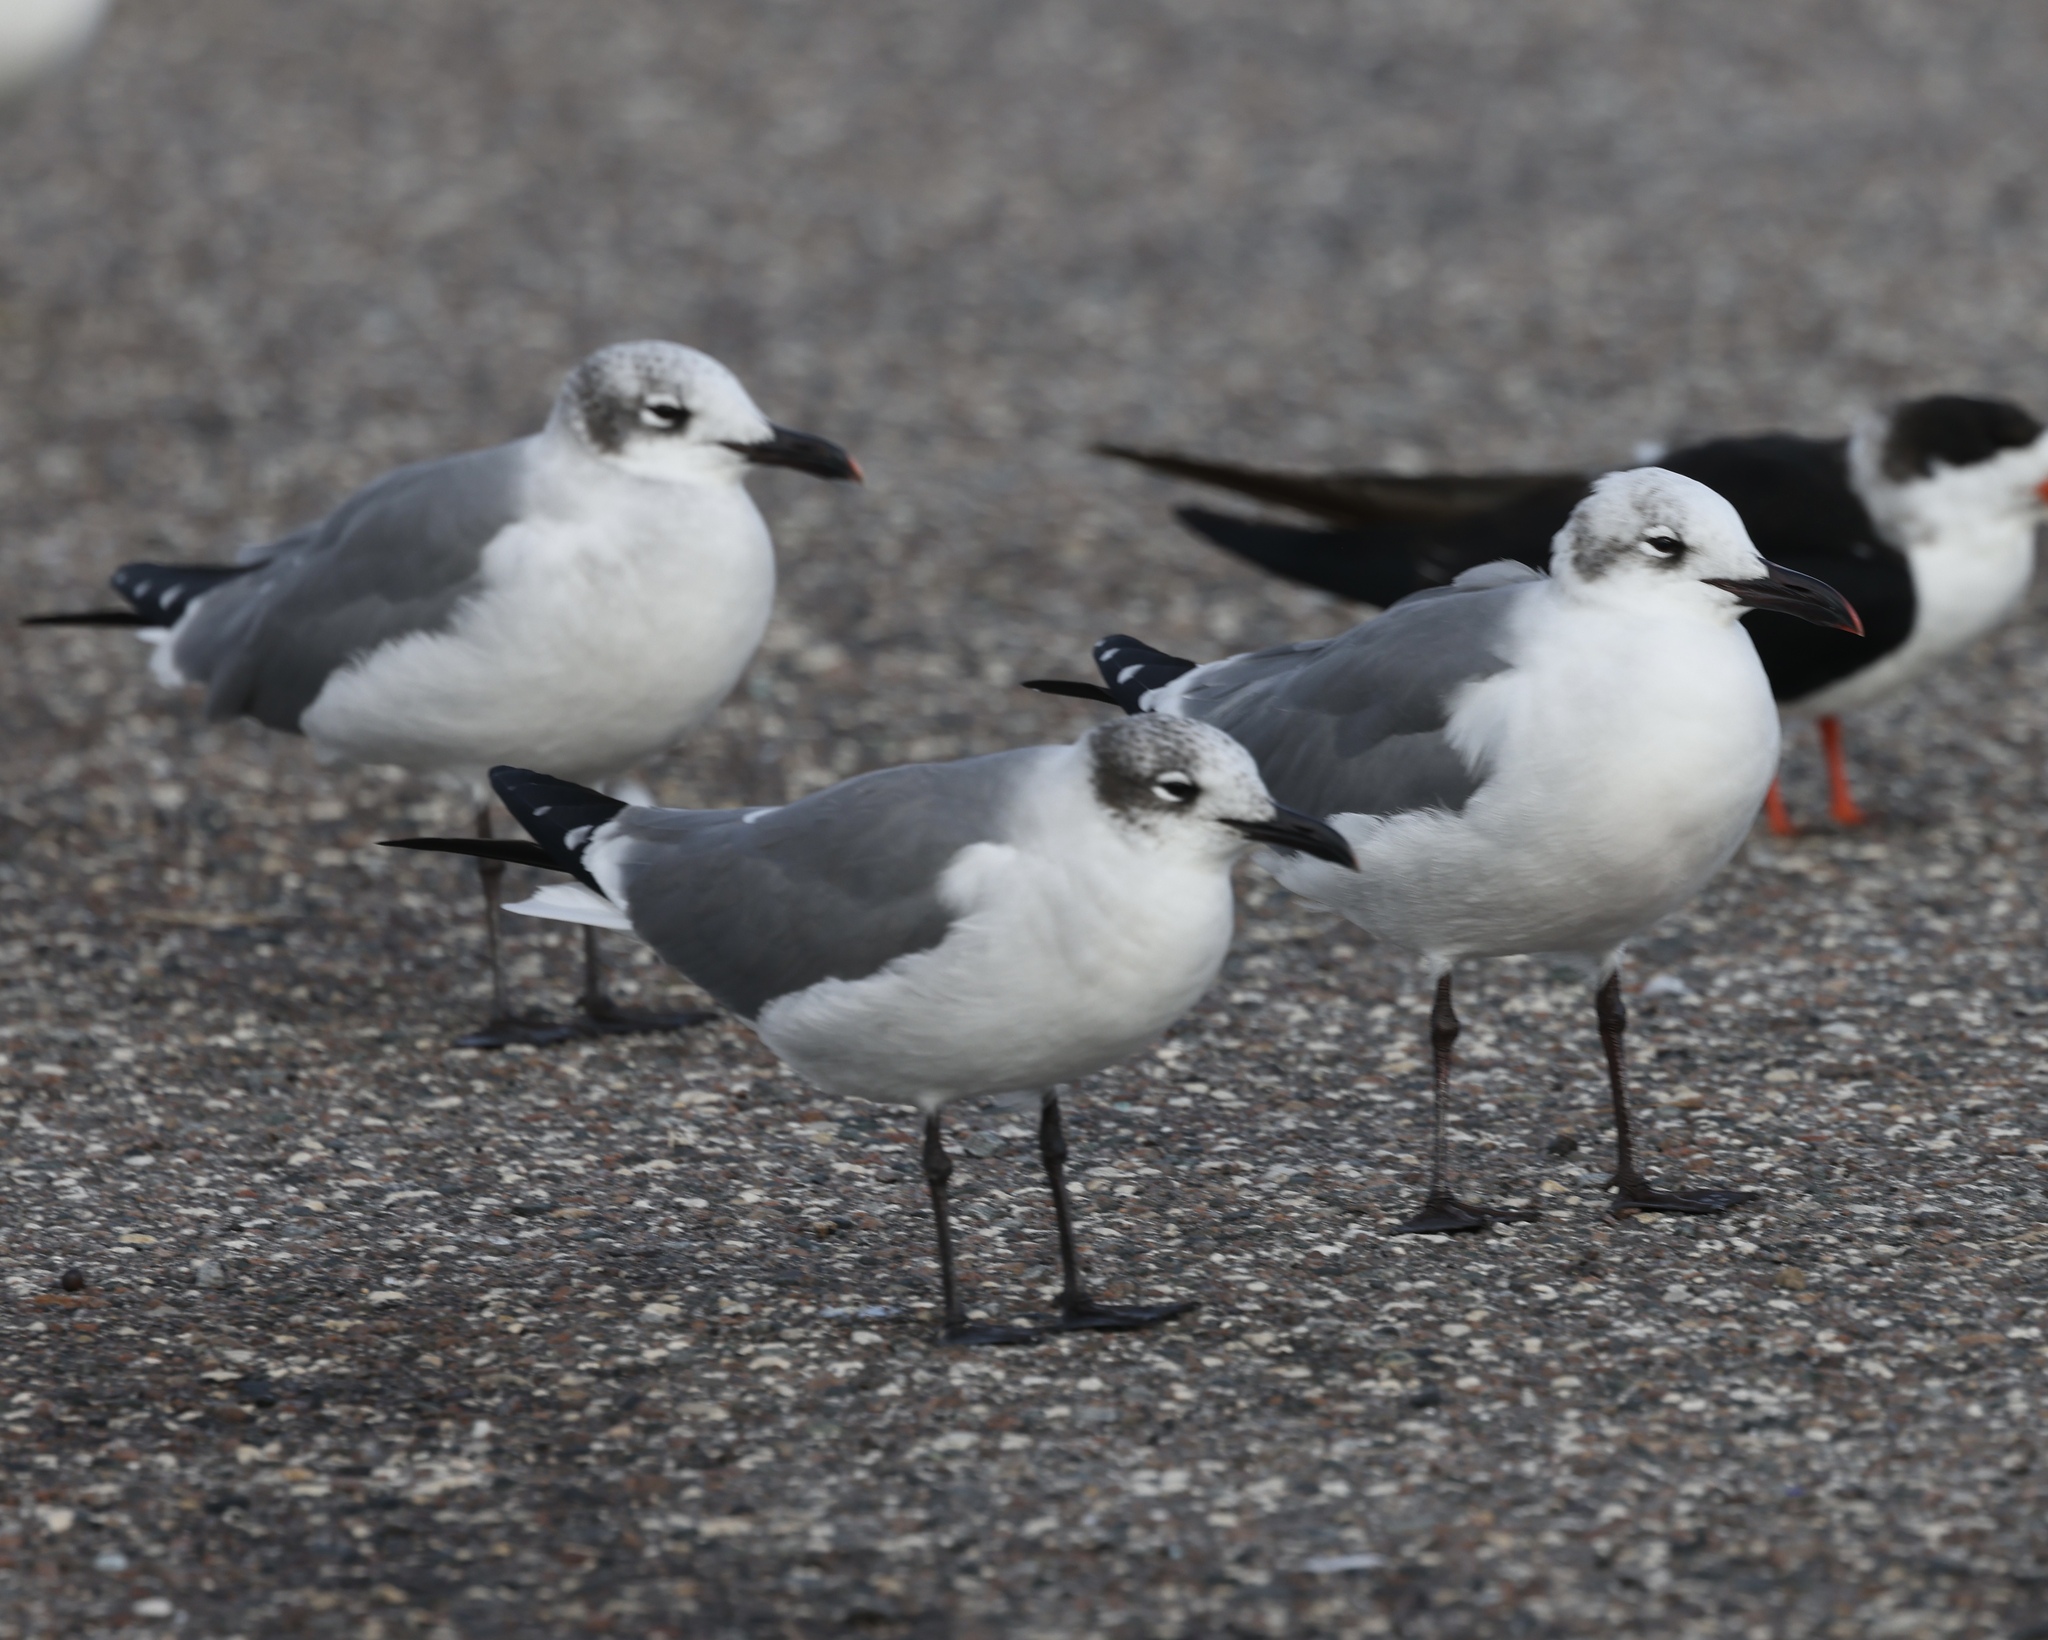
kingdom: Animalia
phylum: Chordata
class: Aves
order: Charadriiformes
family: Laridae
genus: Leucophaeus
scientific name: Leucophaeus atricilla
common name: Laughing gull
